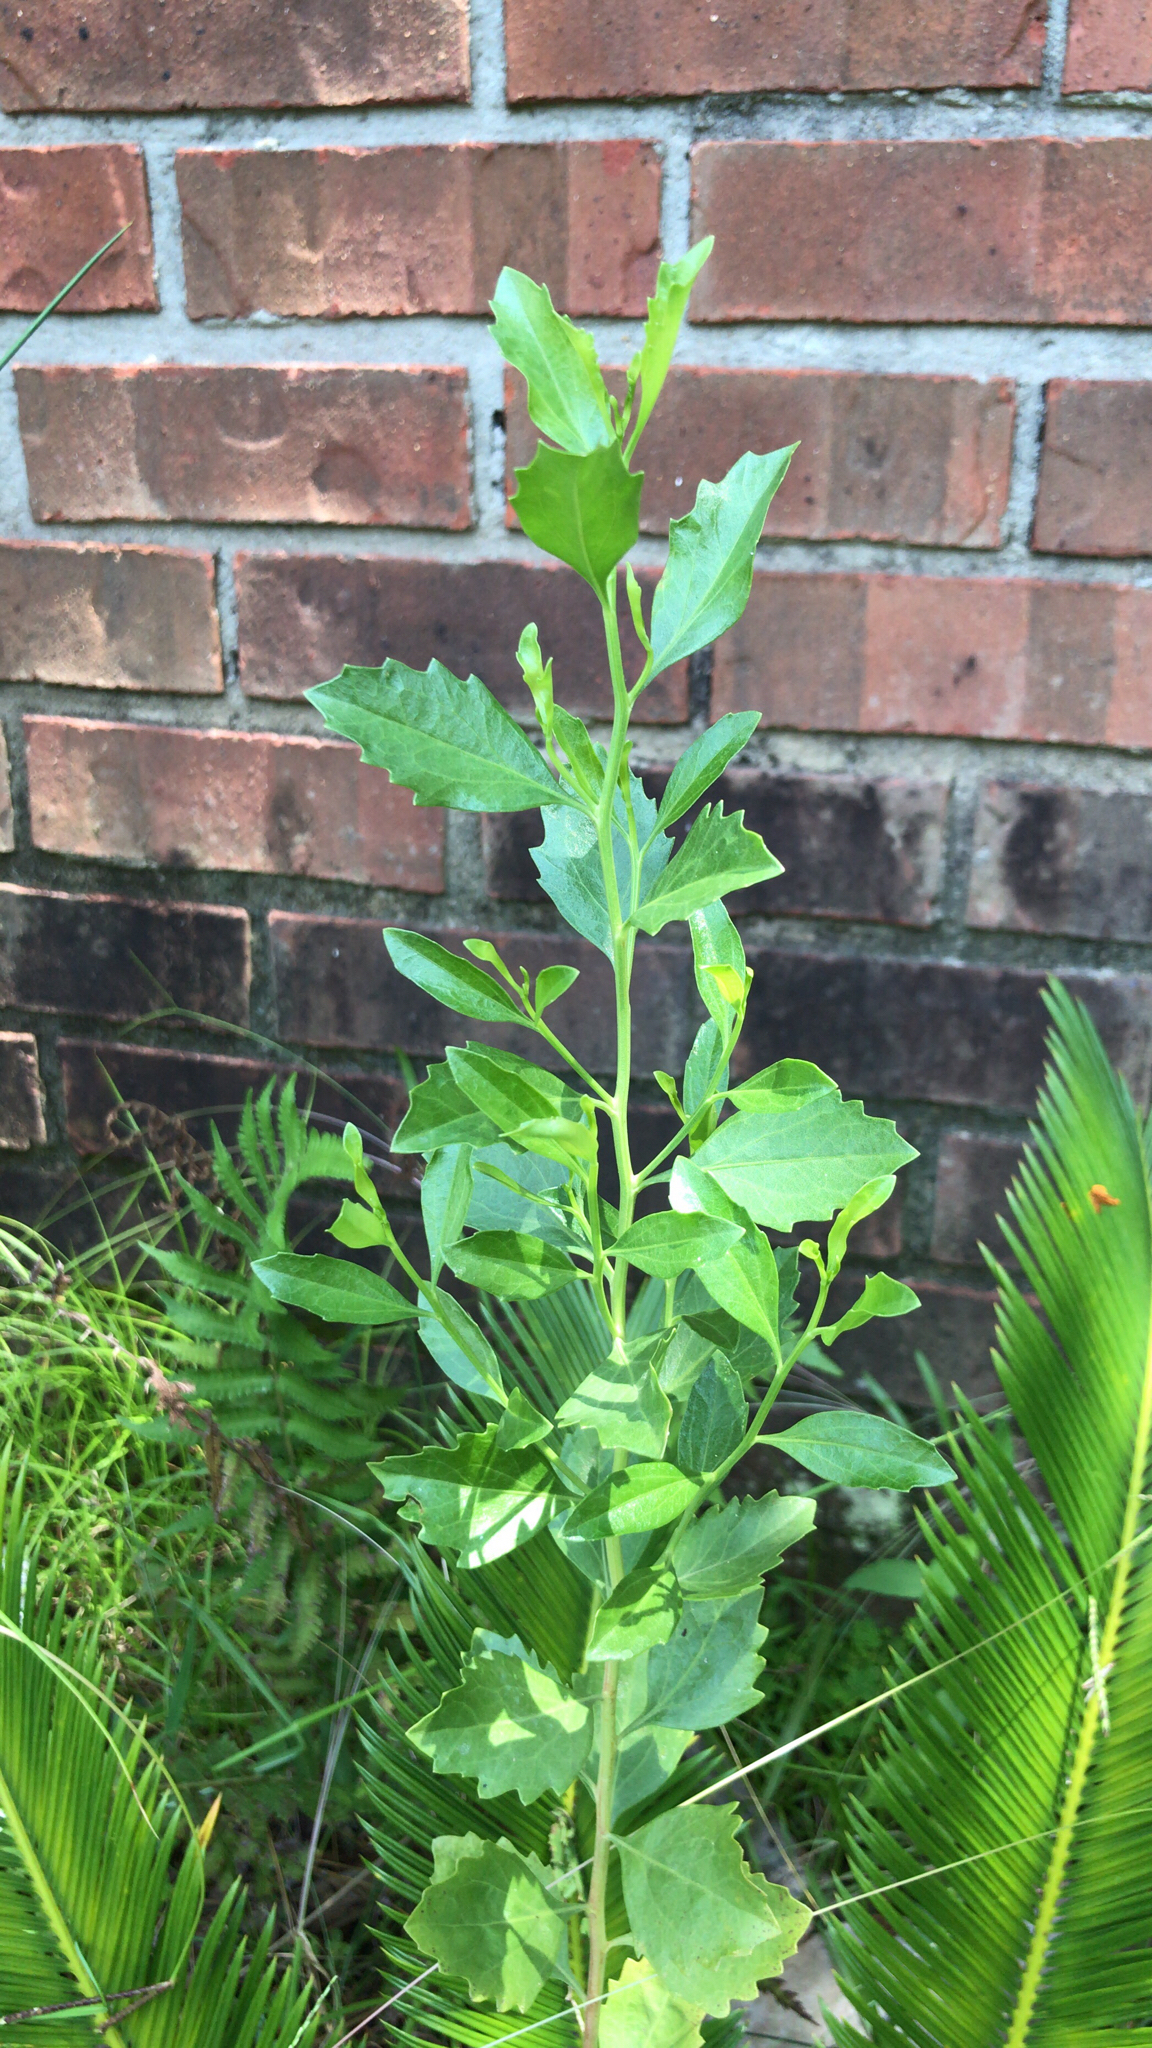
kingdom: Plantae
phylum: Tracheophyta
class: Magnoliopsida
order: Asterales
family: Asteraceae
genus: Baccharis
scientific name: Baccharis halimifolia
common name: Eastern baccharis
